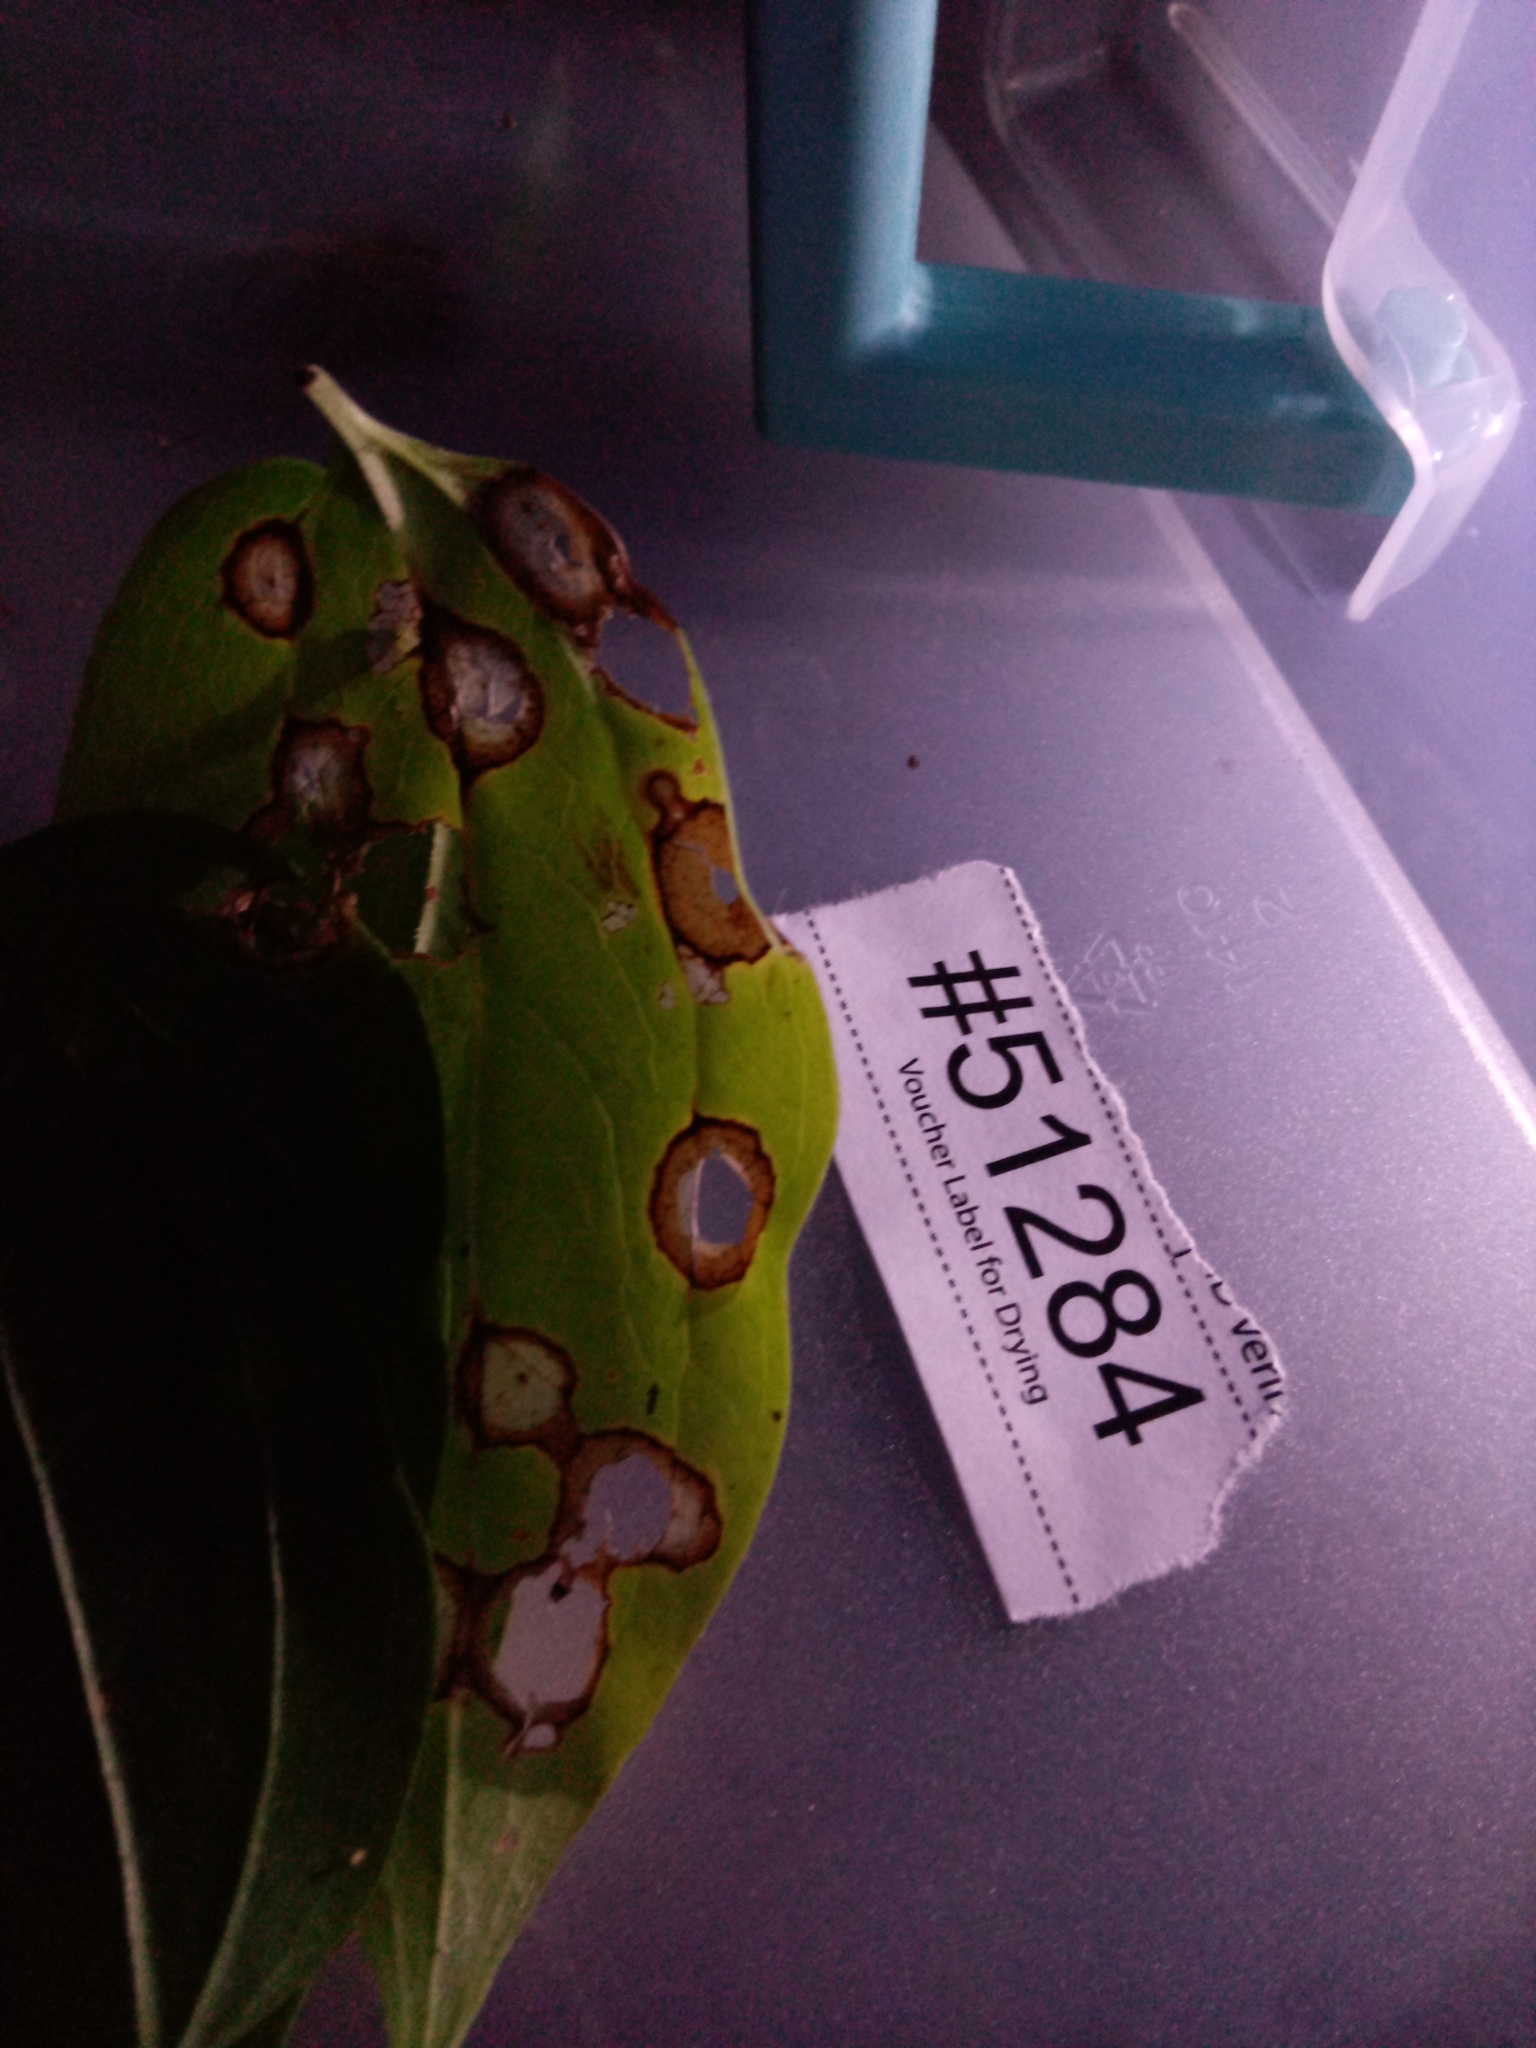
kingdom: Fungi
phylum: Ascomycota
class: Dothideomycetes
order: Botryosphaeriales
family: Phyllostictaceae
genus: Phyllosticta
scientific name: Phyllosticta subeffusa
